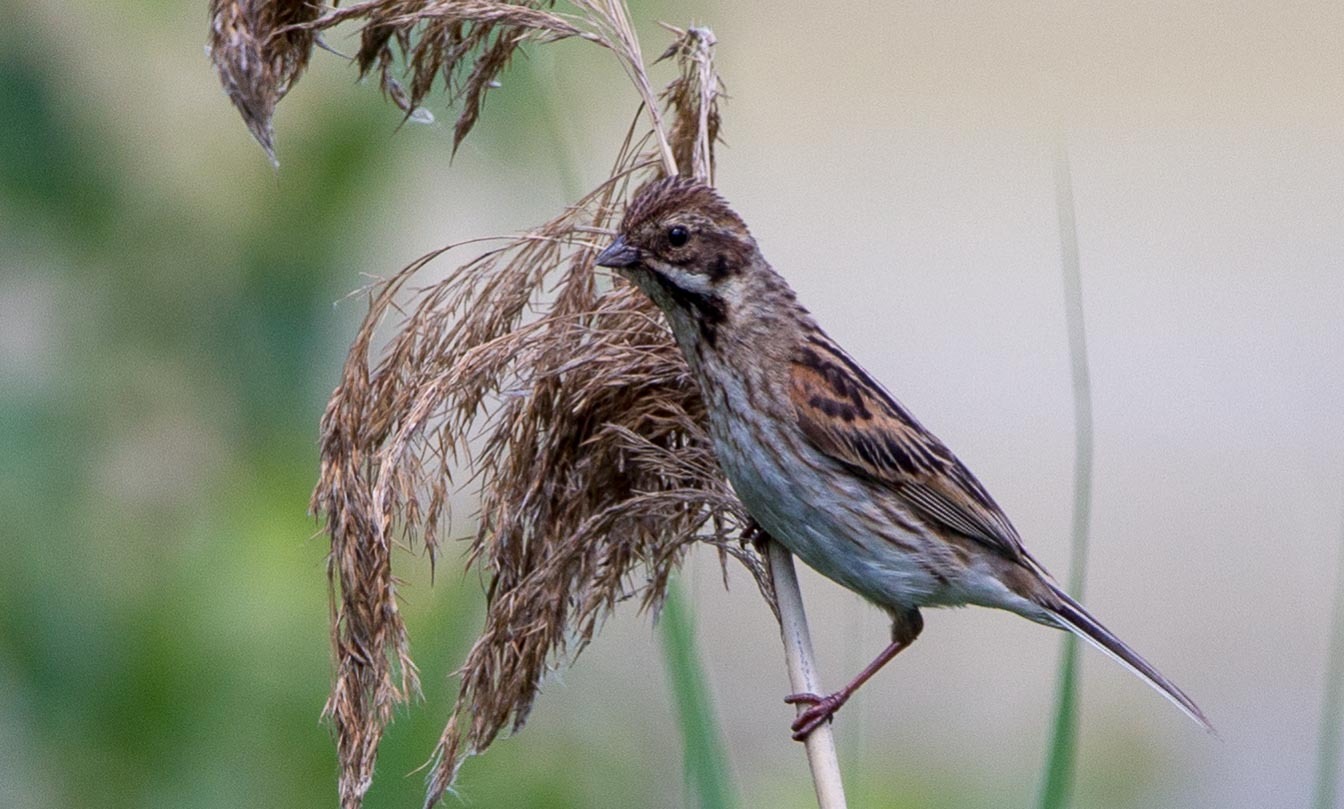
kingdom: Animalia
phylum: Chordata
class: Aves
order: Passeriformes
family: Emberizidae
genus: Emberiza
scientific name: Emberiza schoeniclus
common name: Reed bunting
